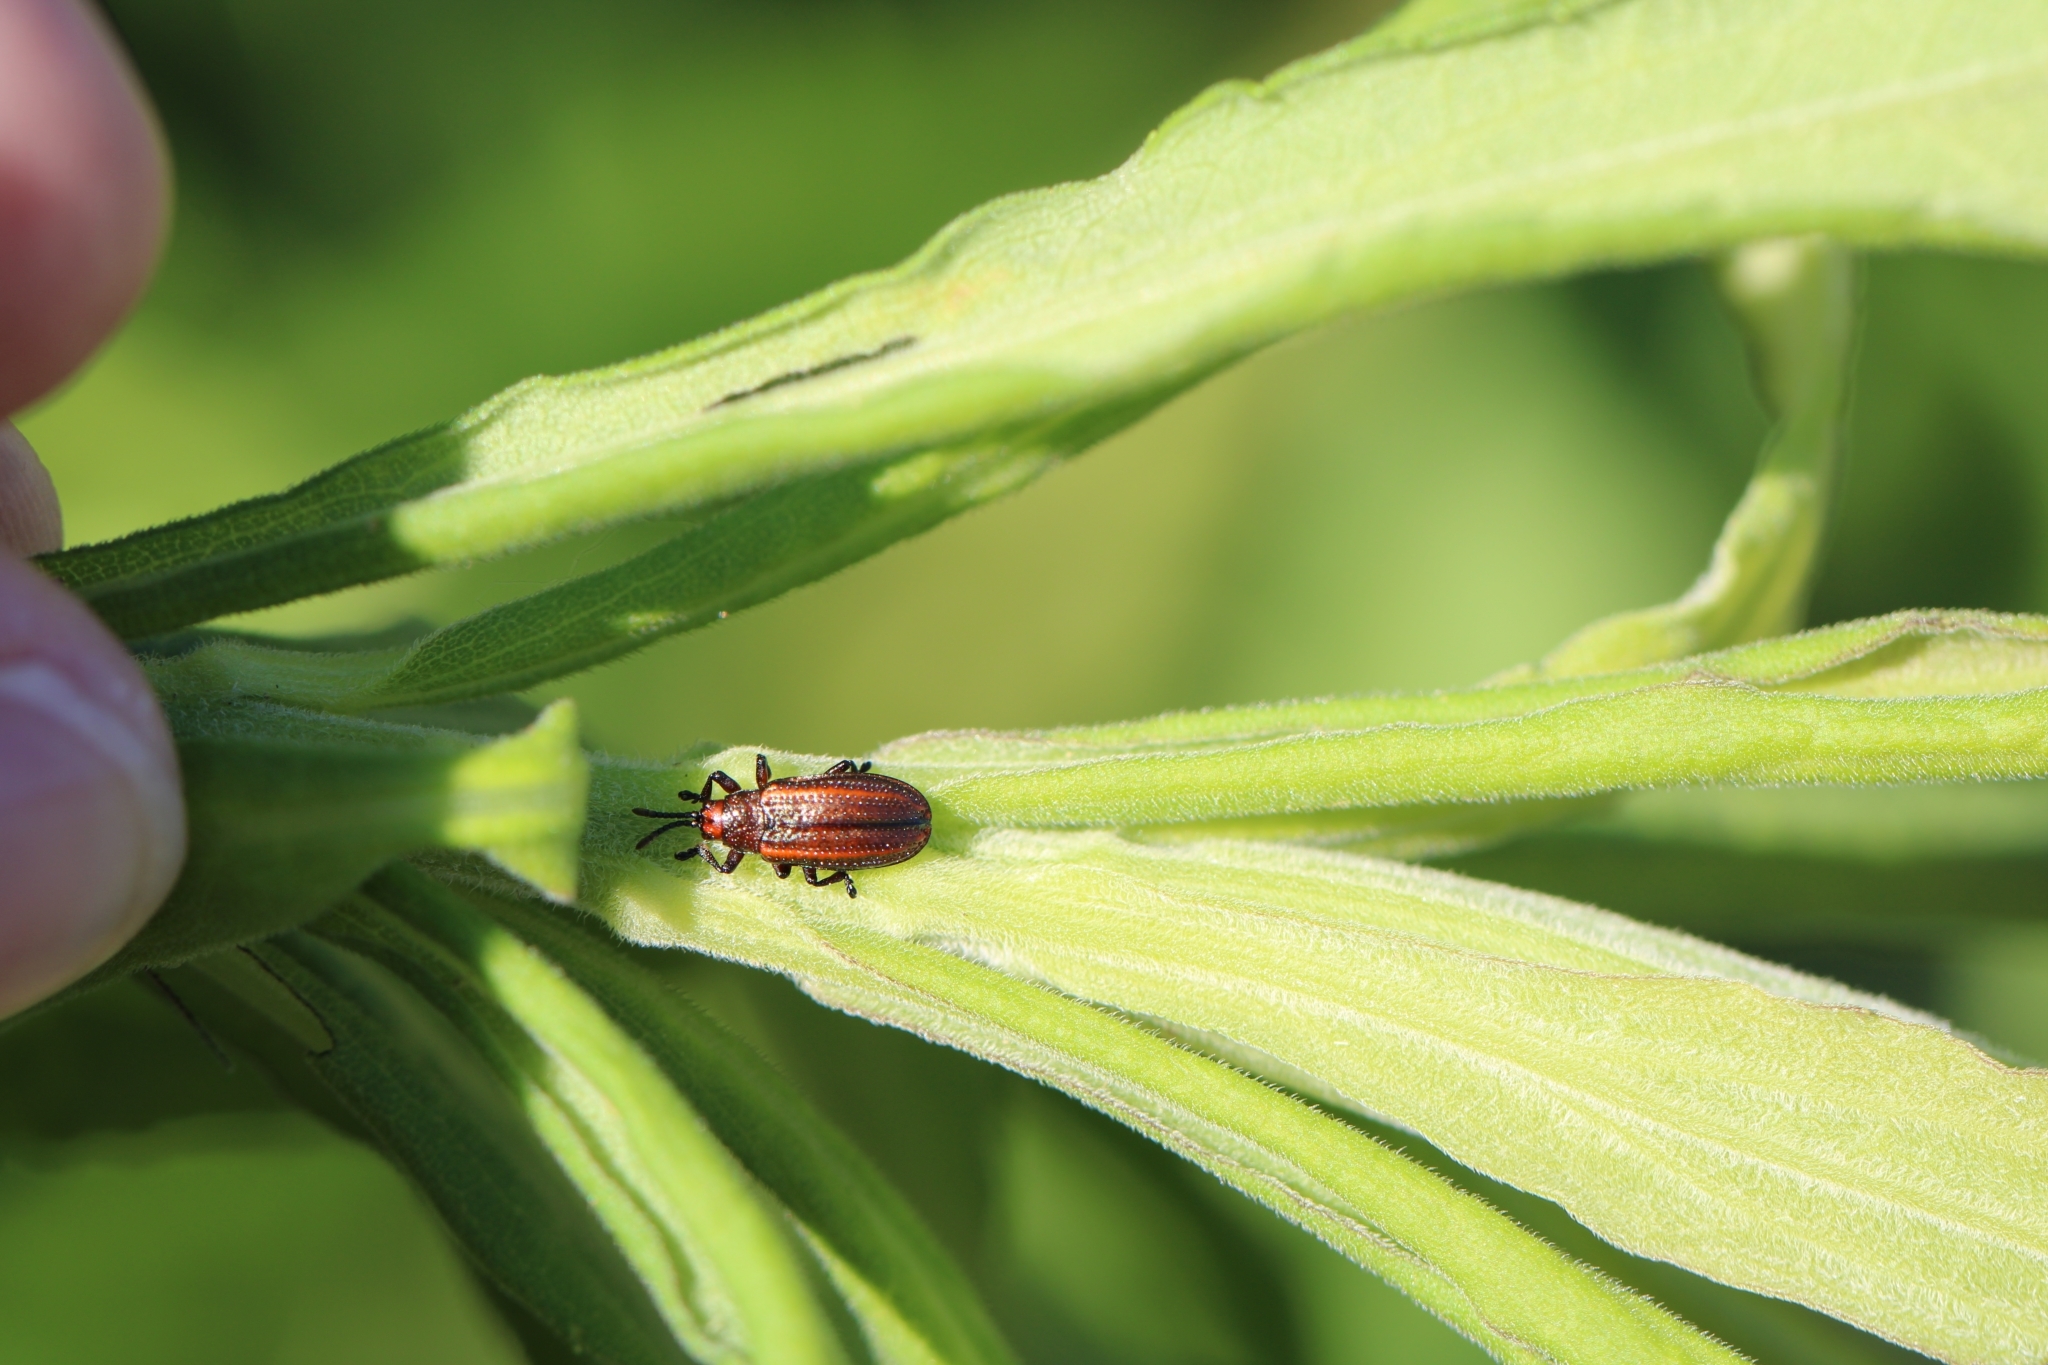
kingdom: Animalia
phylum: Arthropoda
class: Insecta
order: Coleoptera
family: Chrysomelidae
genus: Microrhopala
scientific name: Microrhopala vittata
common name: Goldenrod leaf miner beetle
